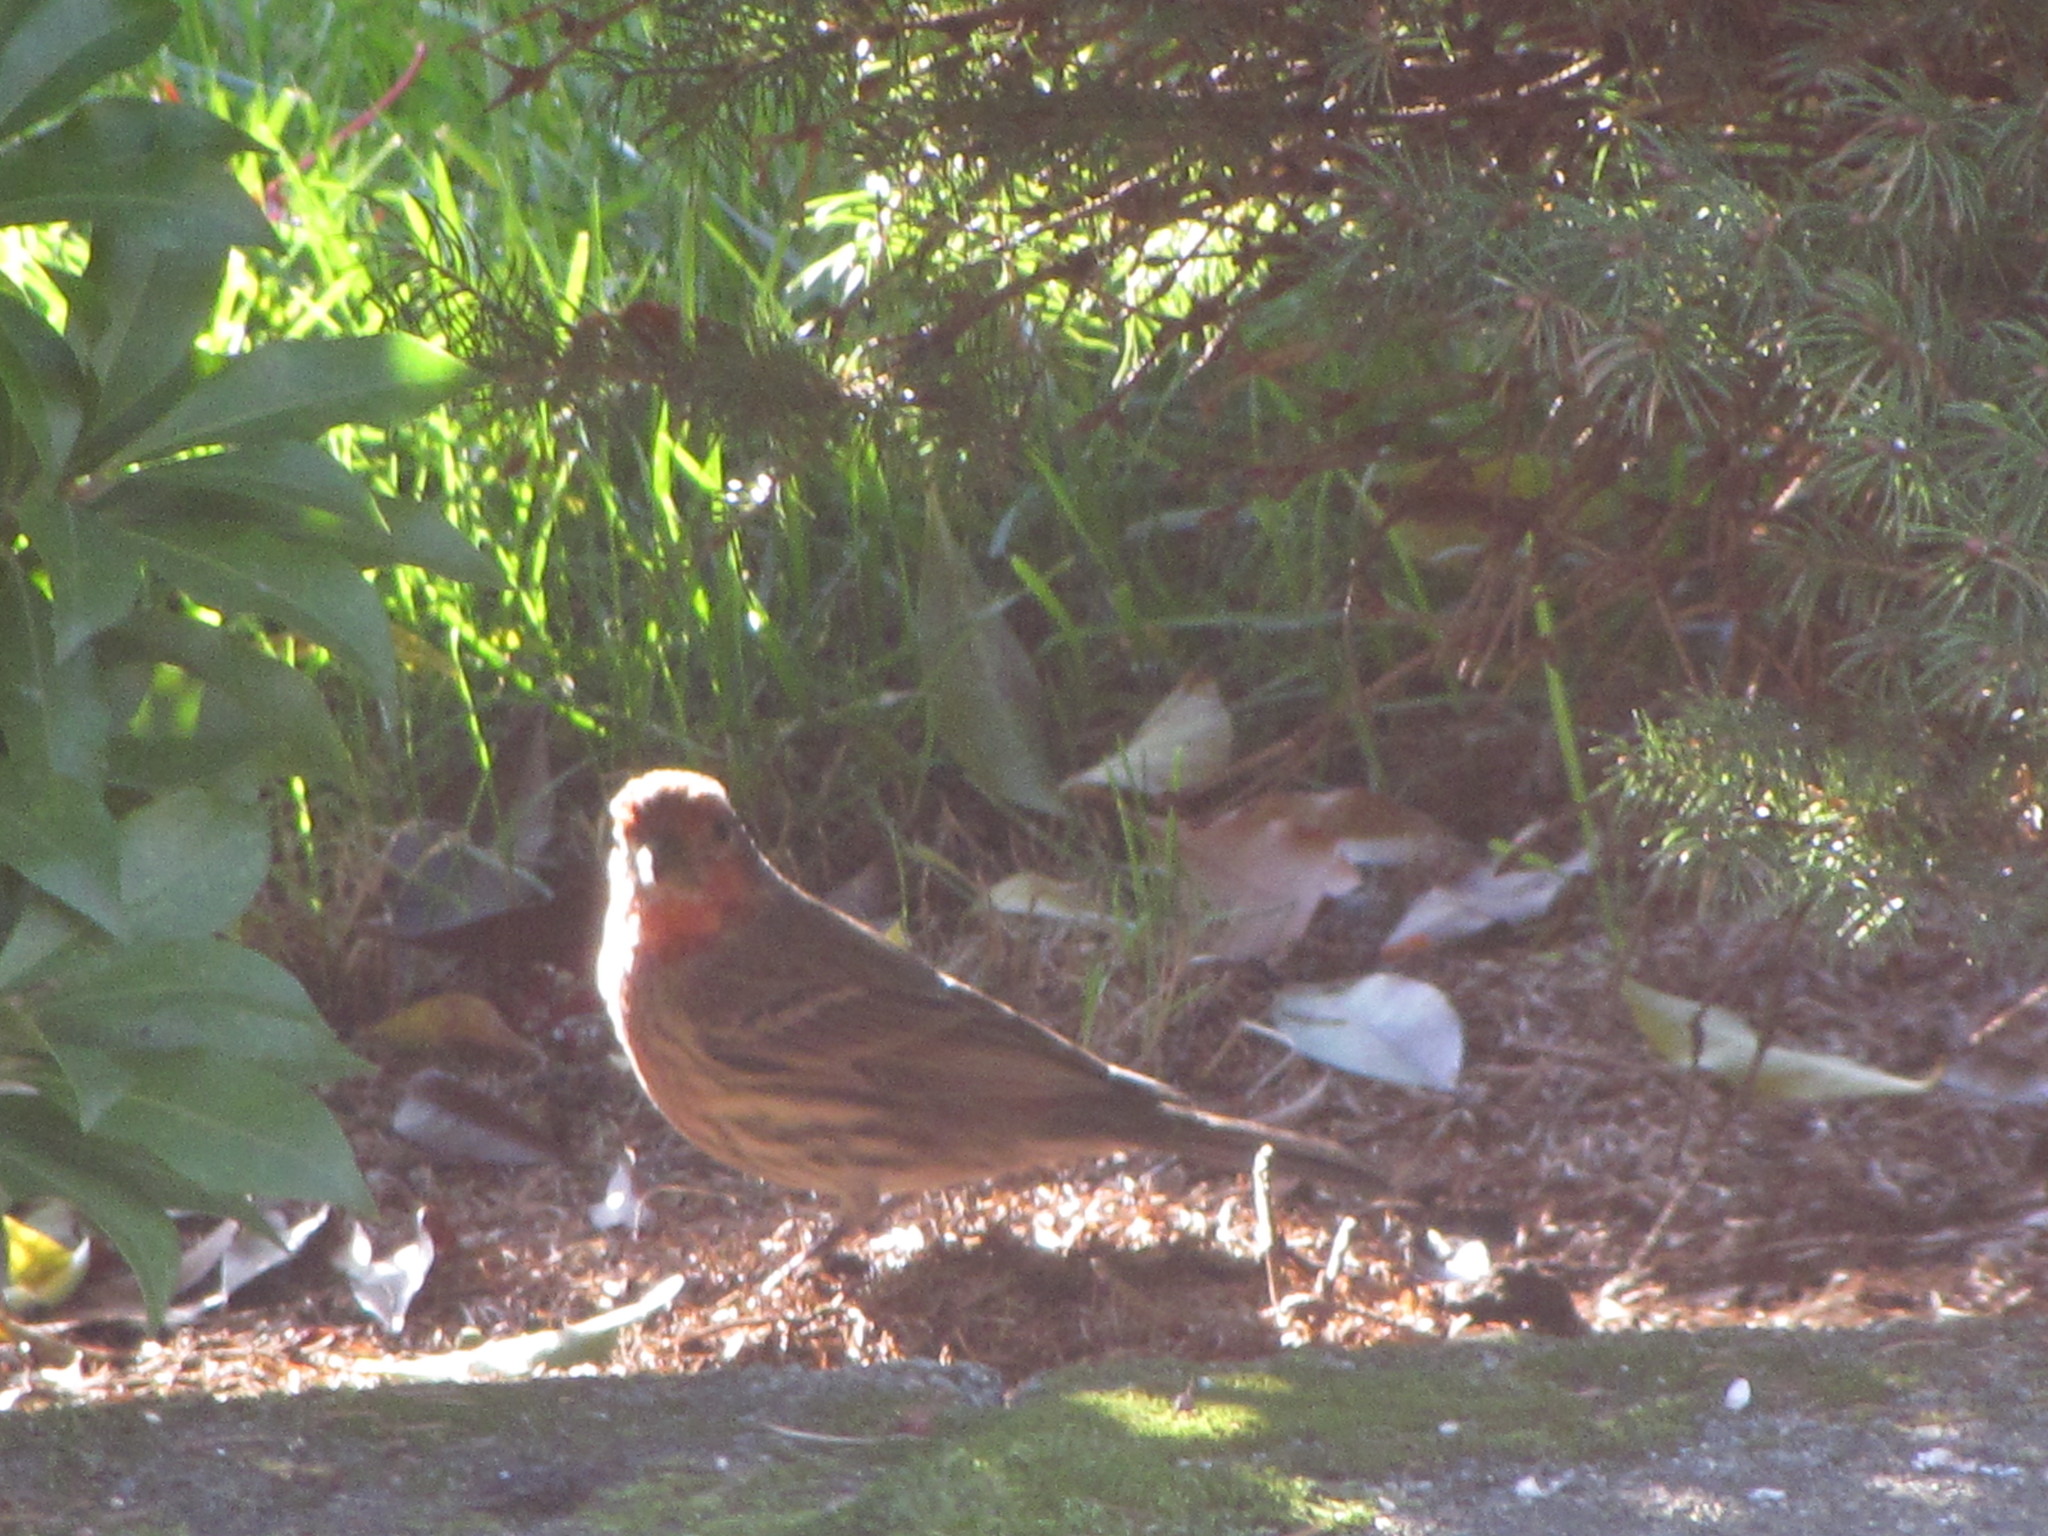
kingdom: Animalia
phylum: Chordata
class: Aves
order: Passeriformes
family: Fringillidae
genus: Haemorhous
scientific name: Haemorhous mexicanus
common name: House finch
